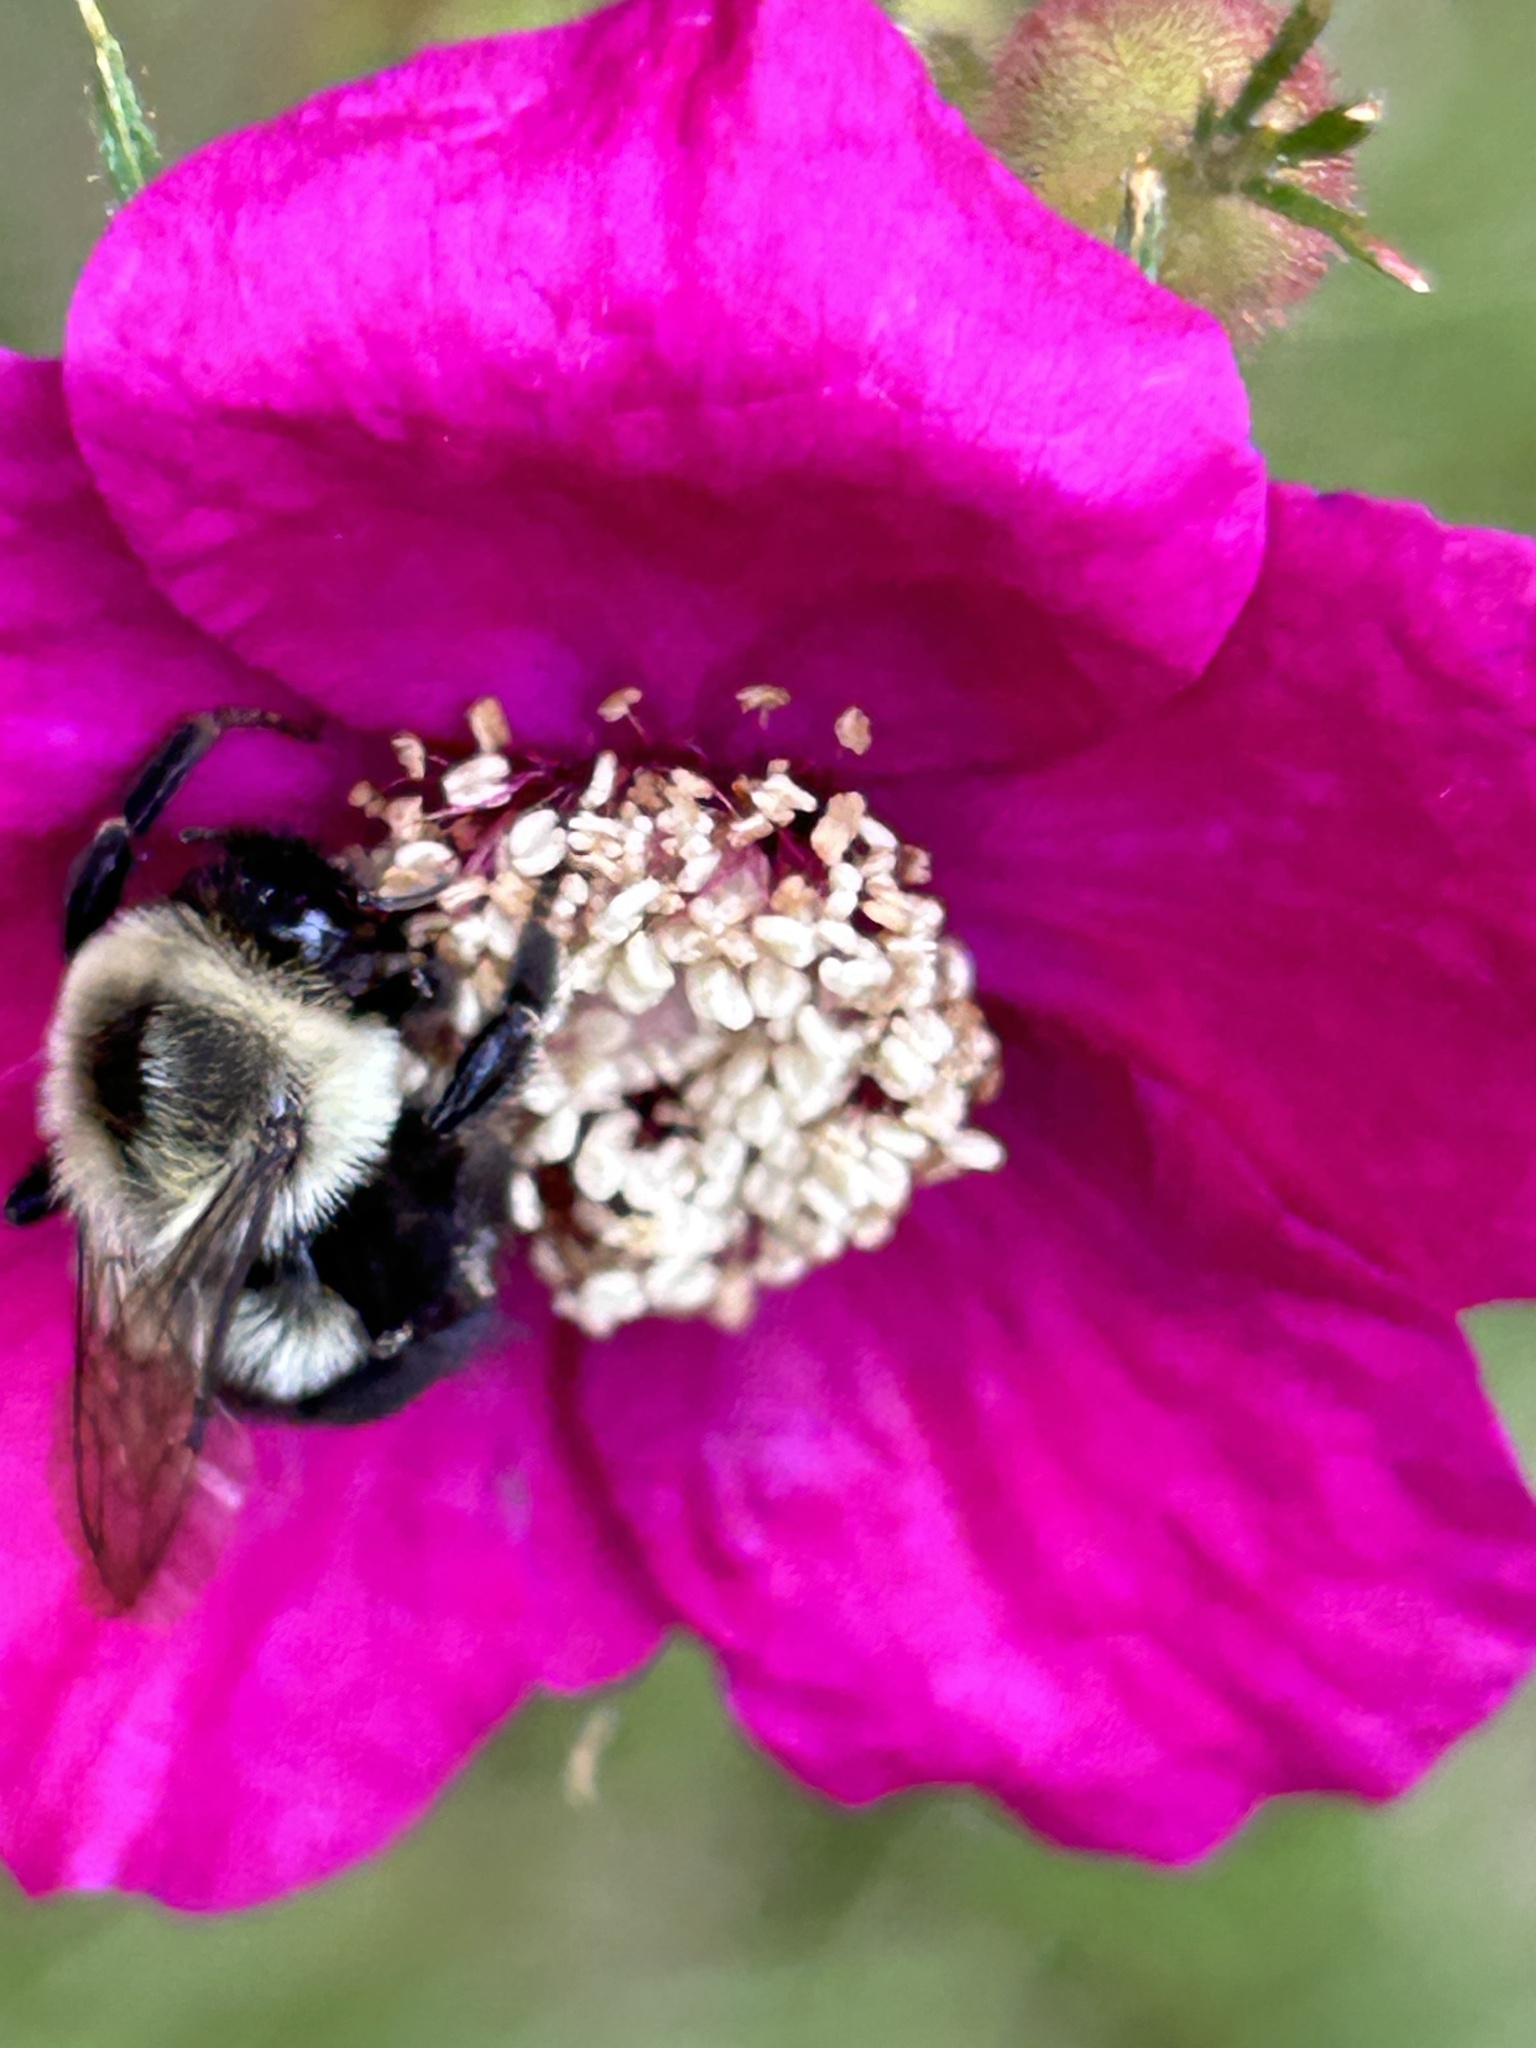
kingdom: Animalia
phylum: Arthropoda
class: Insecta
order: Hymenoptera
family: Apidae
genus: Bombus
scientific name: Bombus impatiens
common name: Common eastern bumble bee
